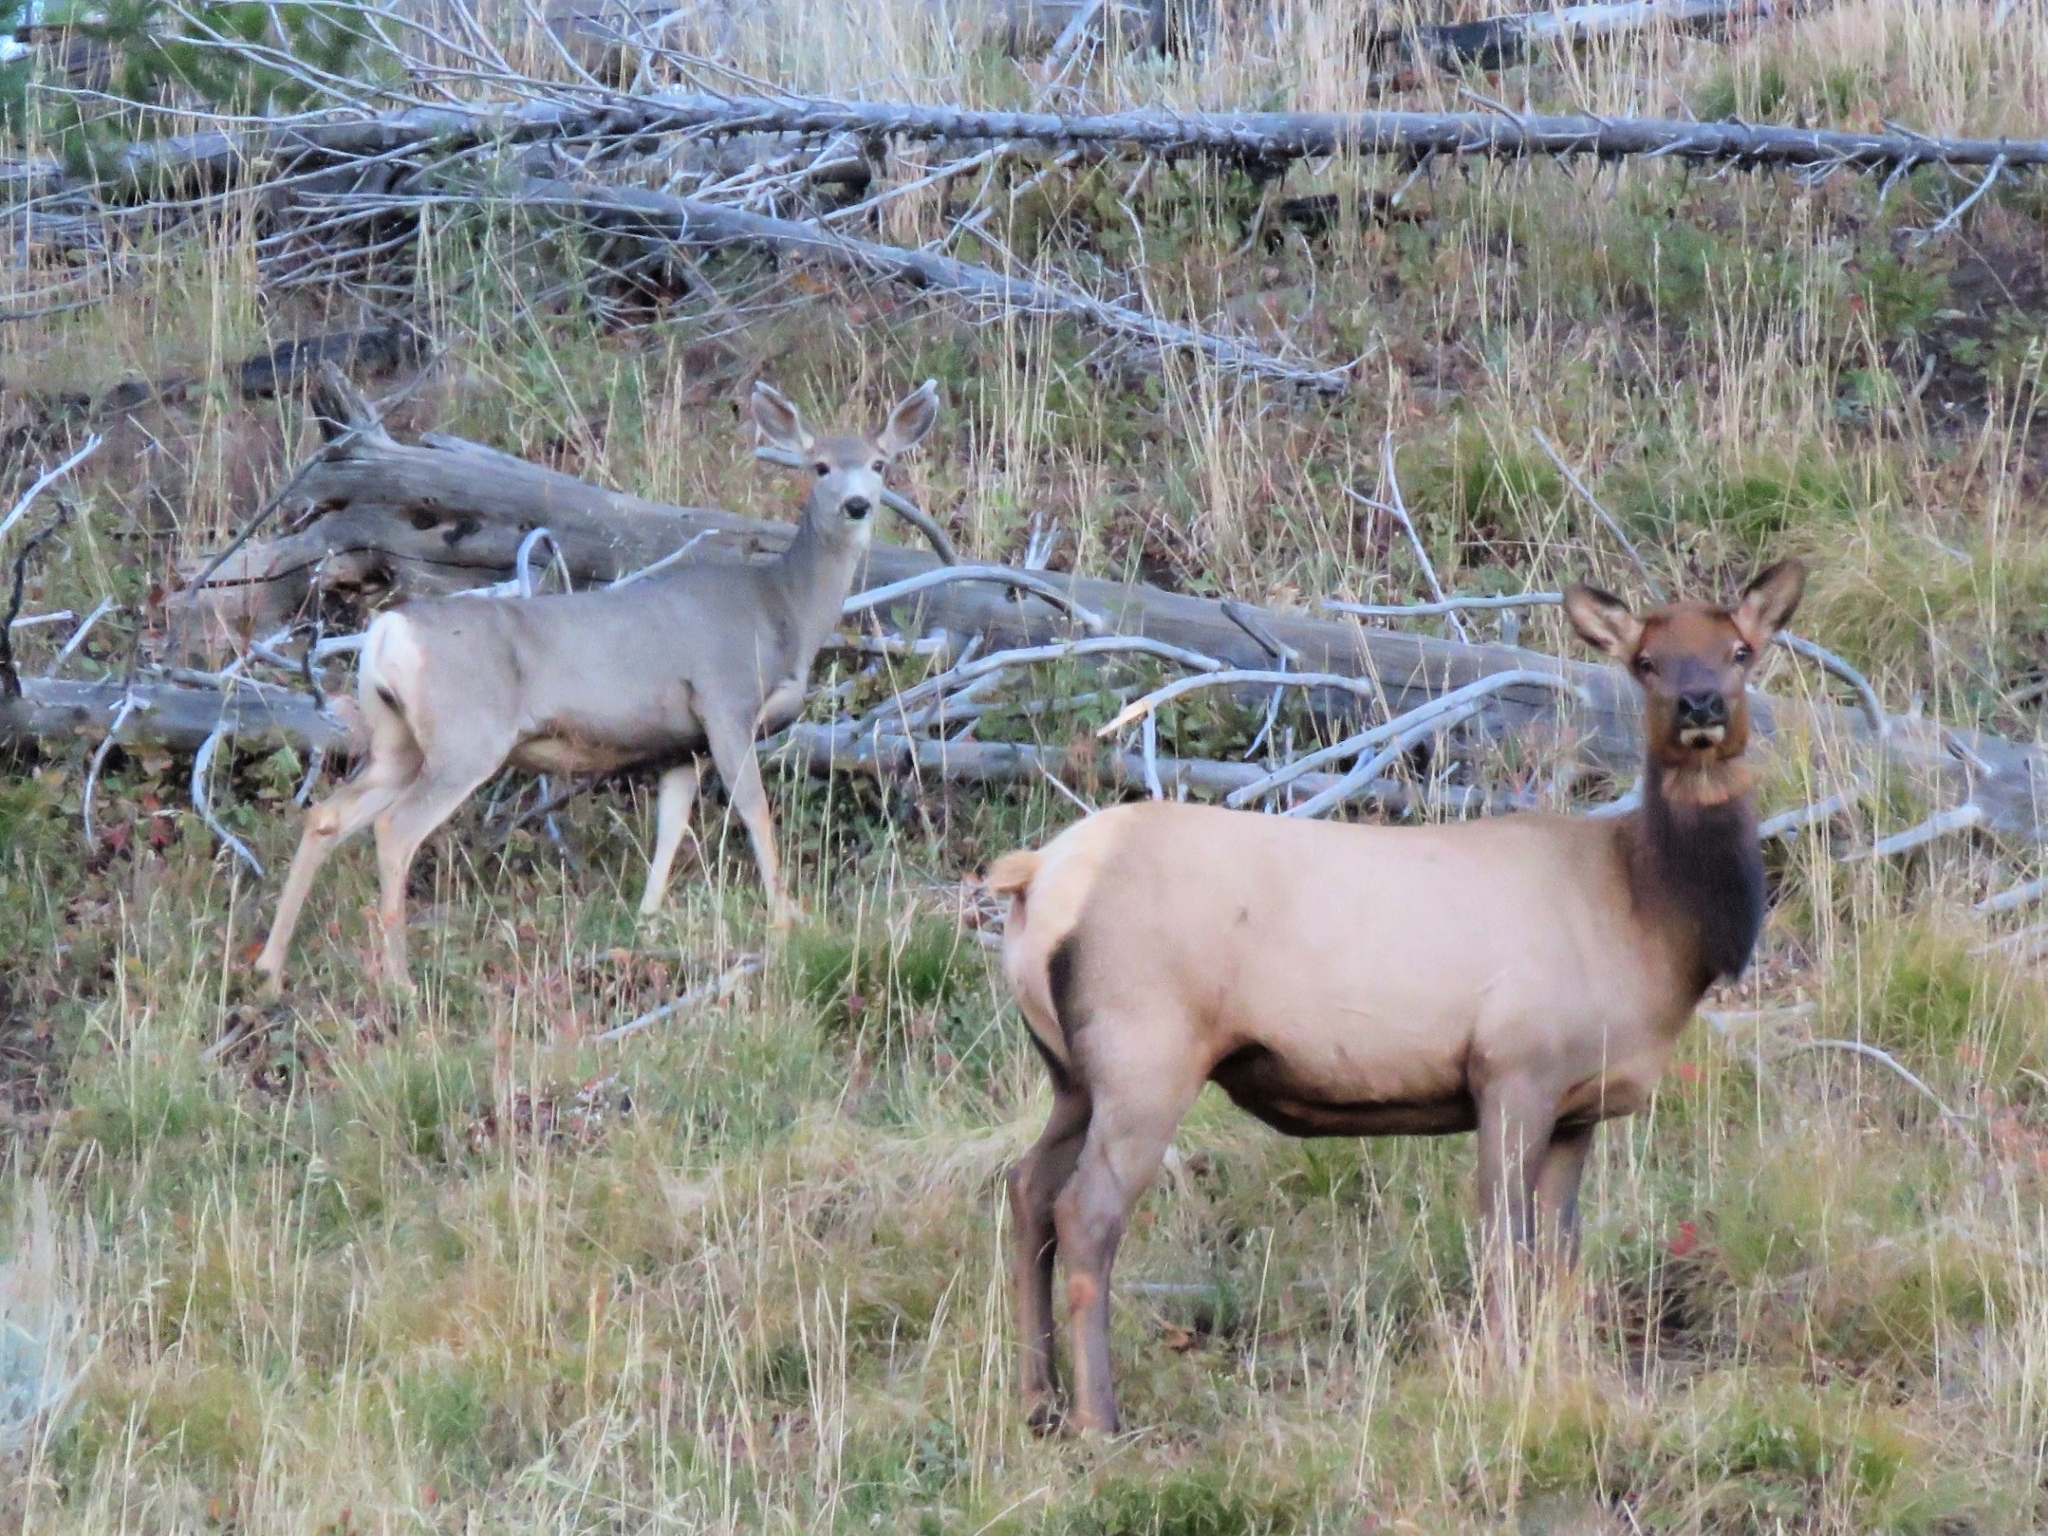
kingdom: Animalia
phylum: Chordata
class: Mammalia
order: Artiodactyla
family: Cervidae
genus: Odocoileus
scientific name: Odocoileus hemionus
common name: Mule deer
